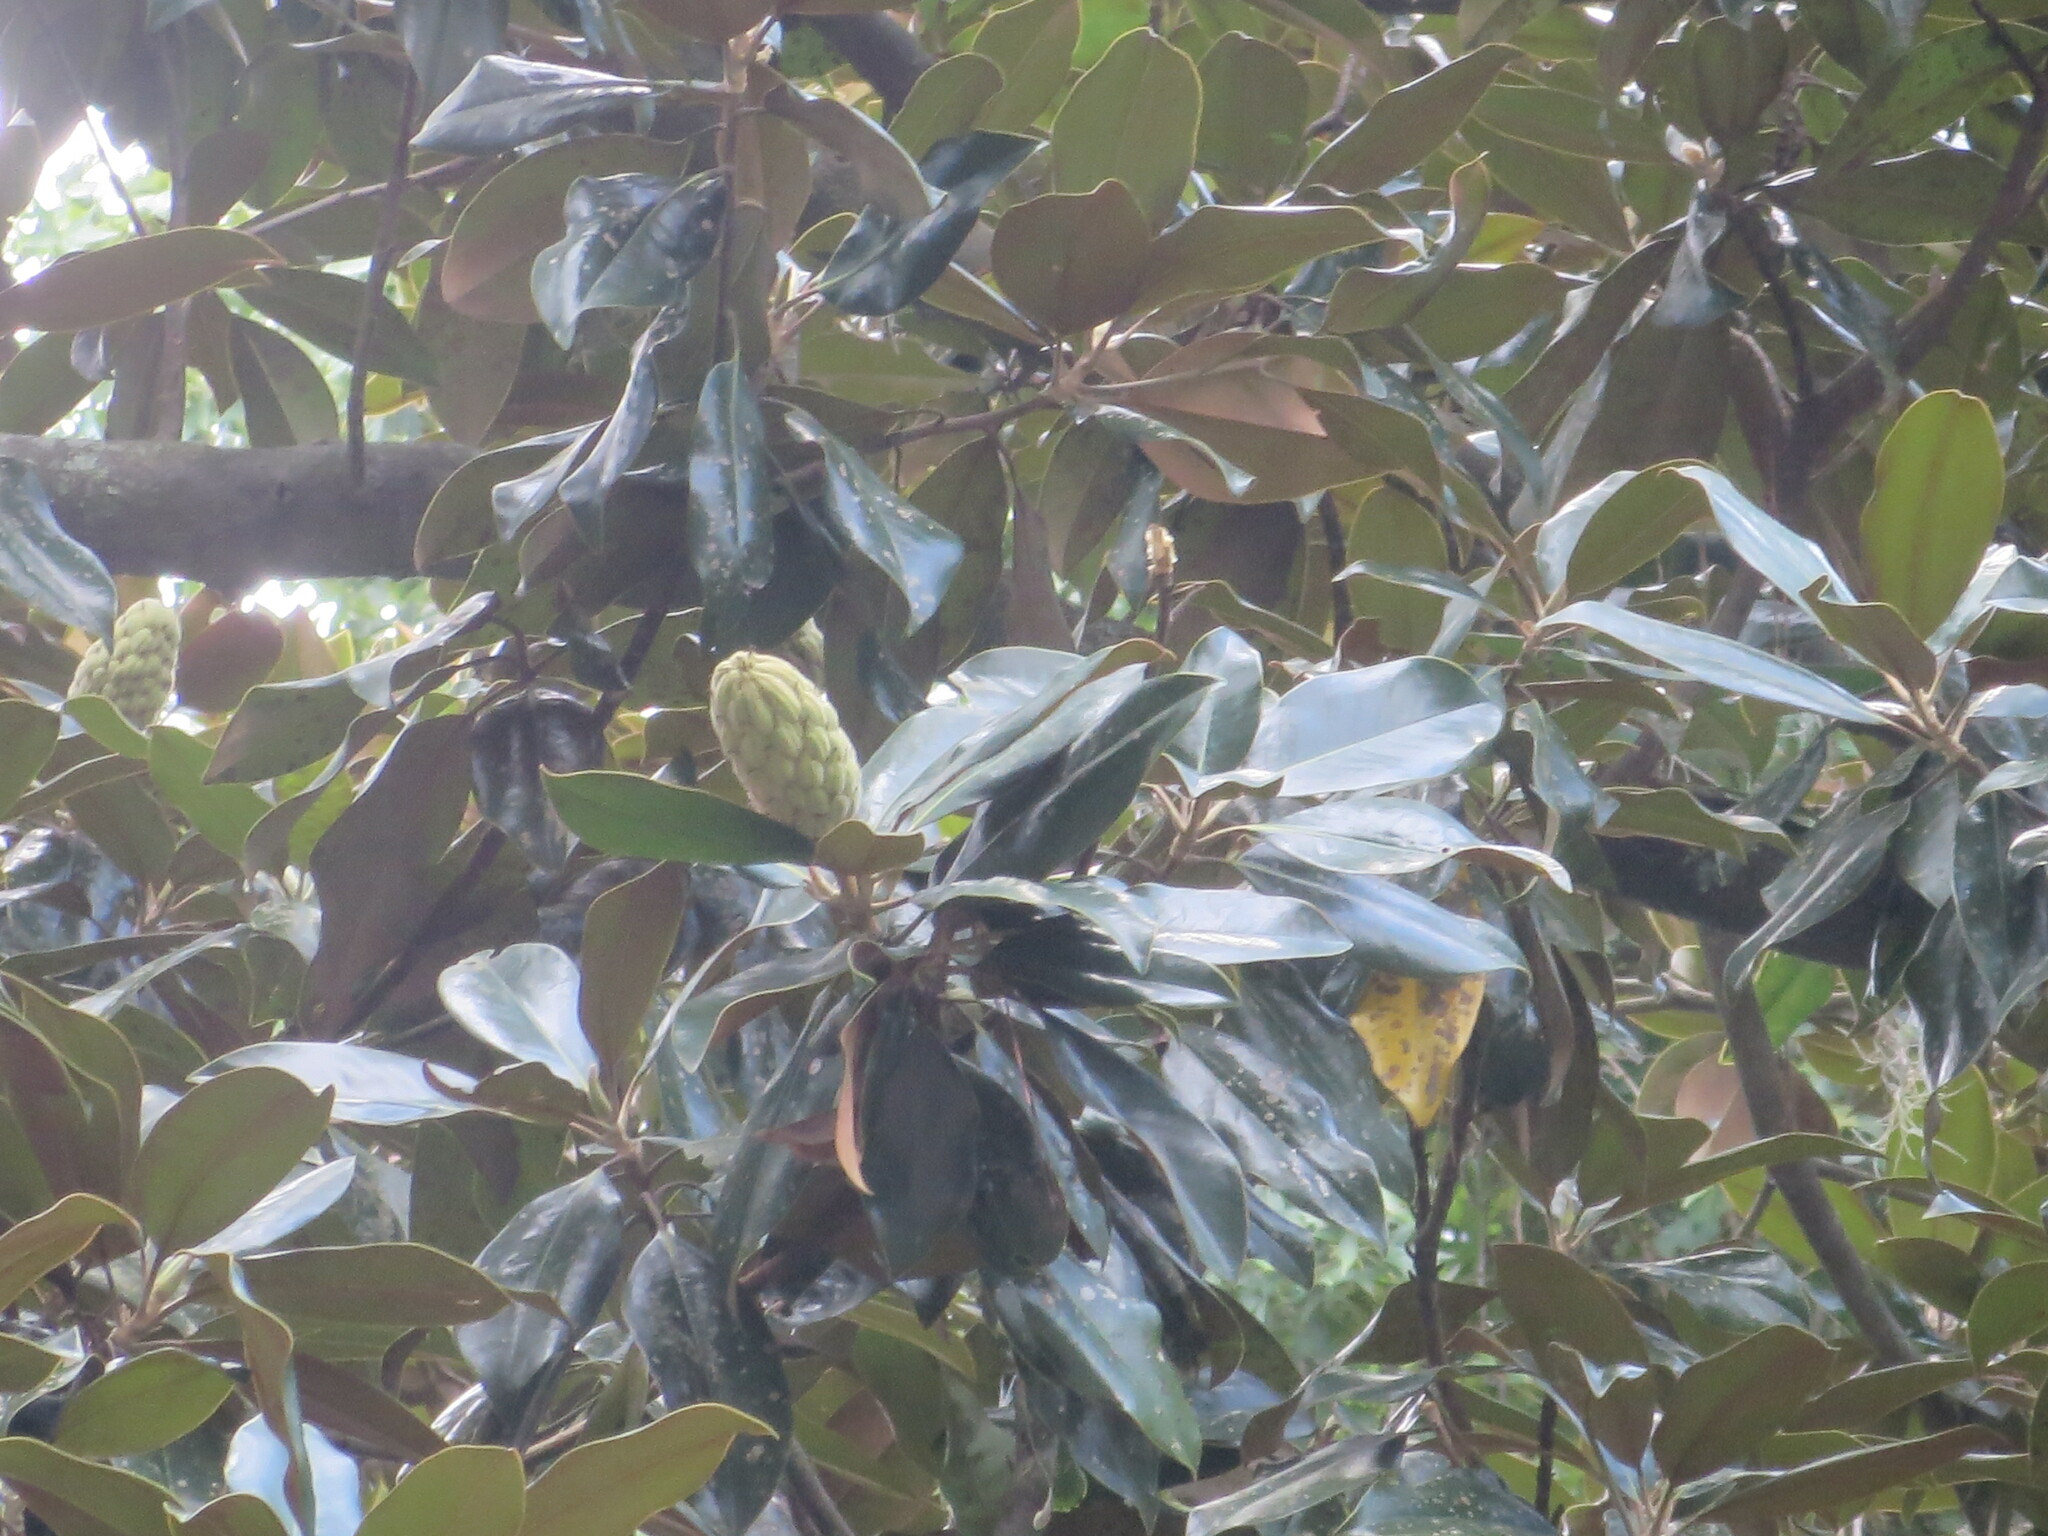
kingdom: Plantae
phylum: Tracheophyta
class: Magnoliopsida
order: Magnoliales
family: Magnoliaceae
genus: Magnolia
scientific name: Magnolia grandiflora
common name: Southern magnolia
